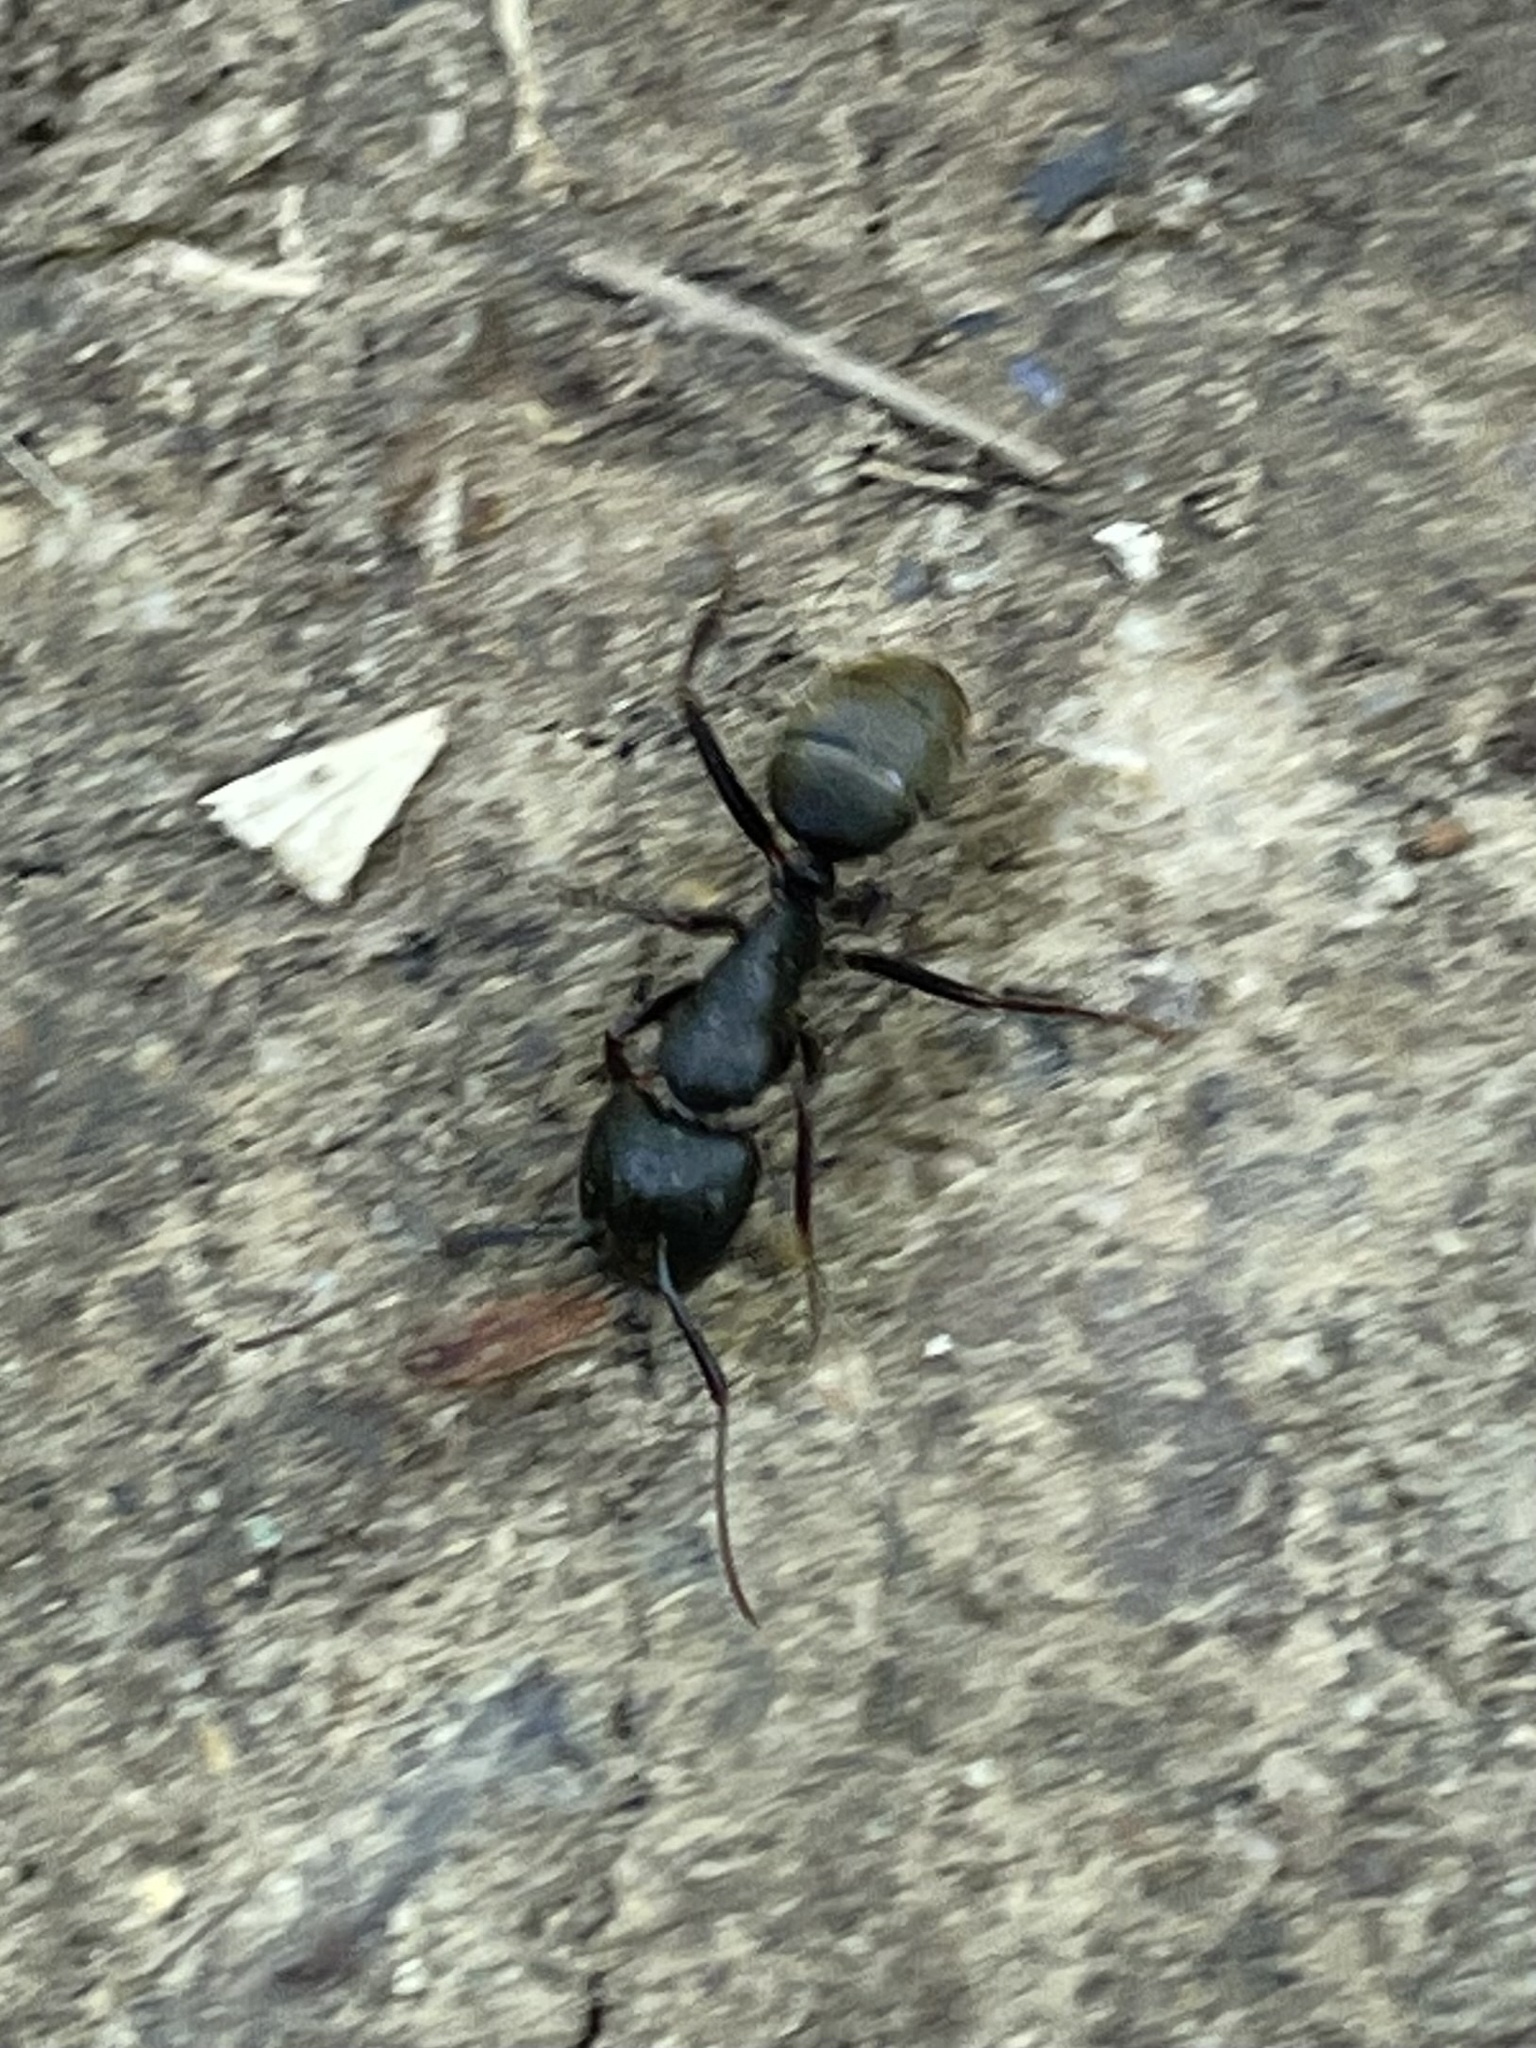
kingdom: Animalia
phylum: Arthropoda
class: Insecta
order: Hymenoptera
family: Formicidae
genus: Camponotus
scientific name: Camponotus pennsylvanicus
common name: Black carpenter ant
